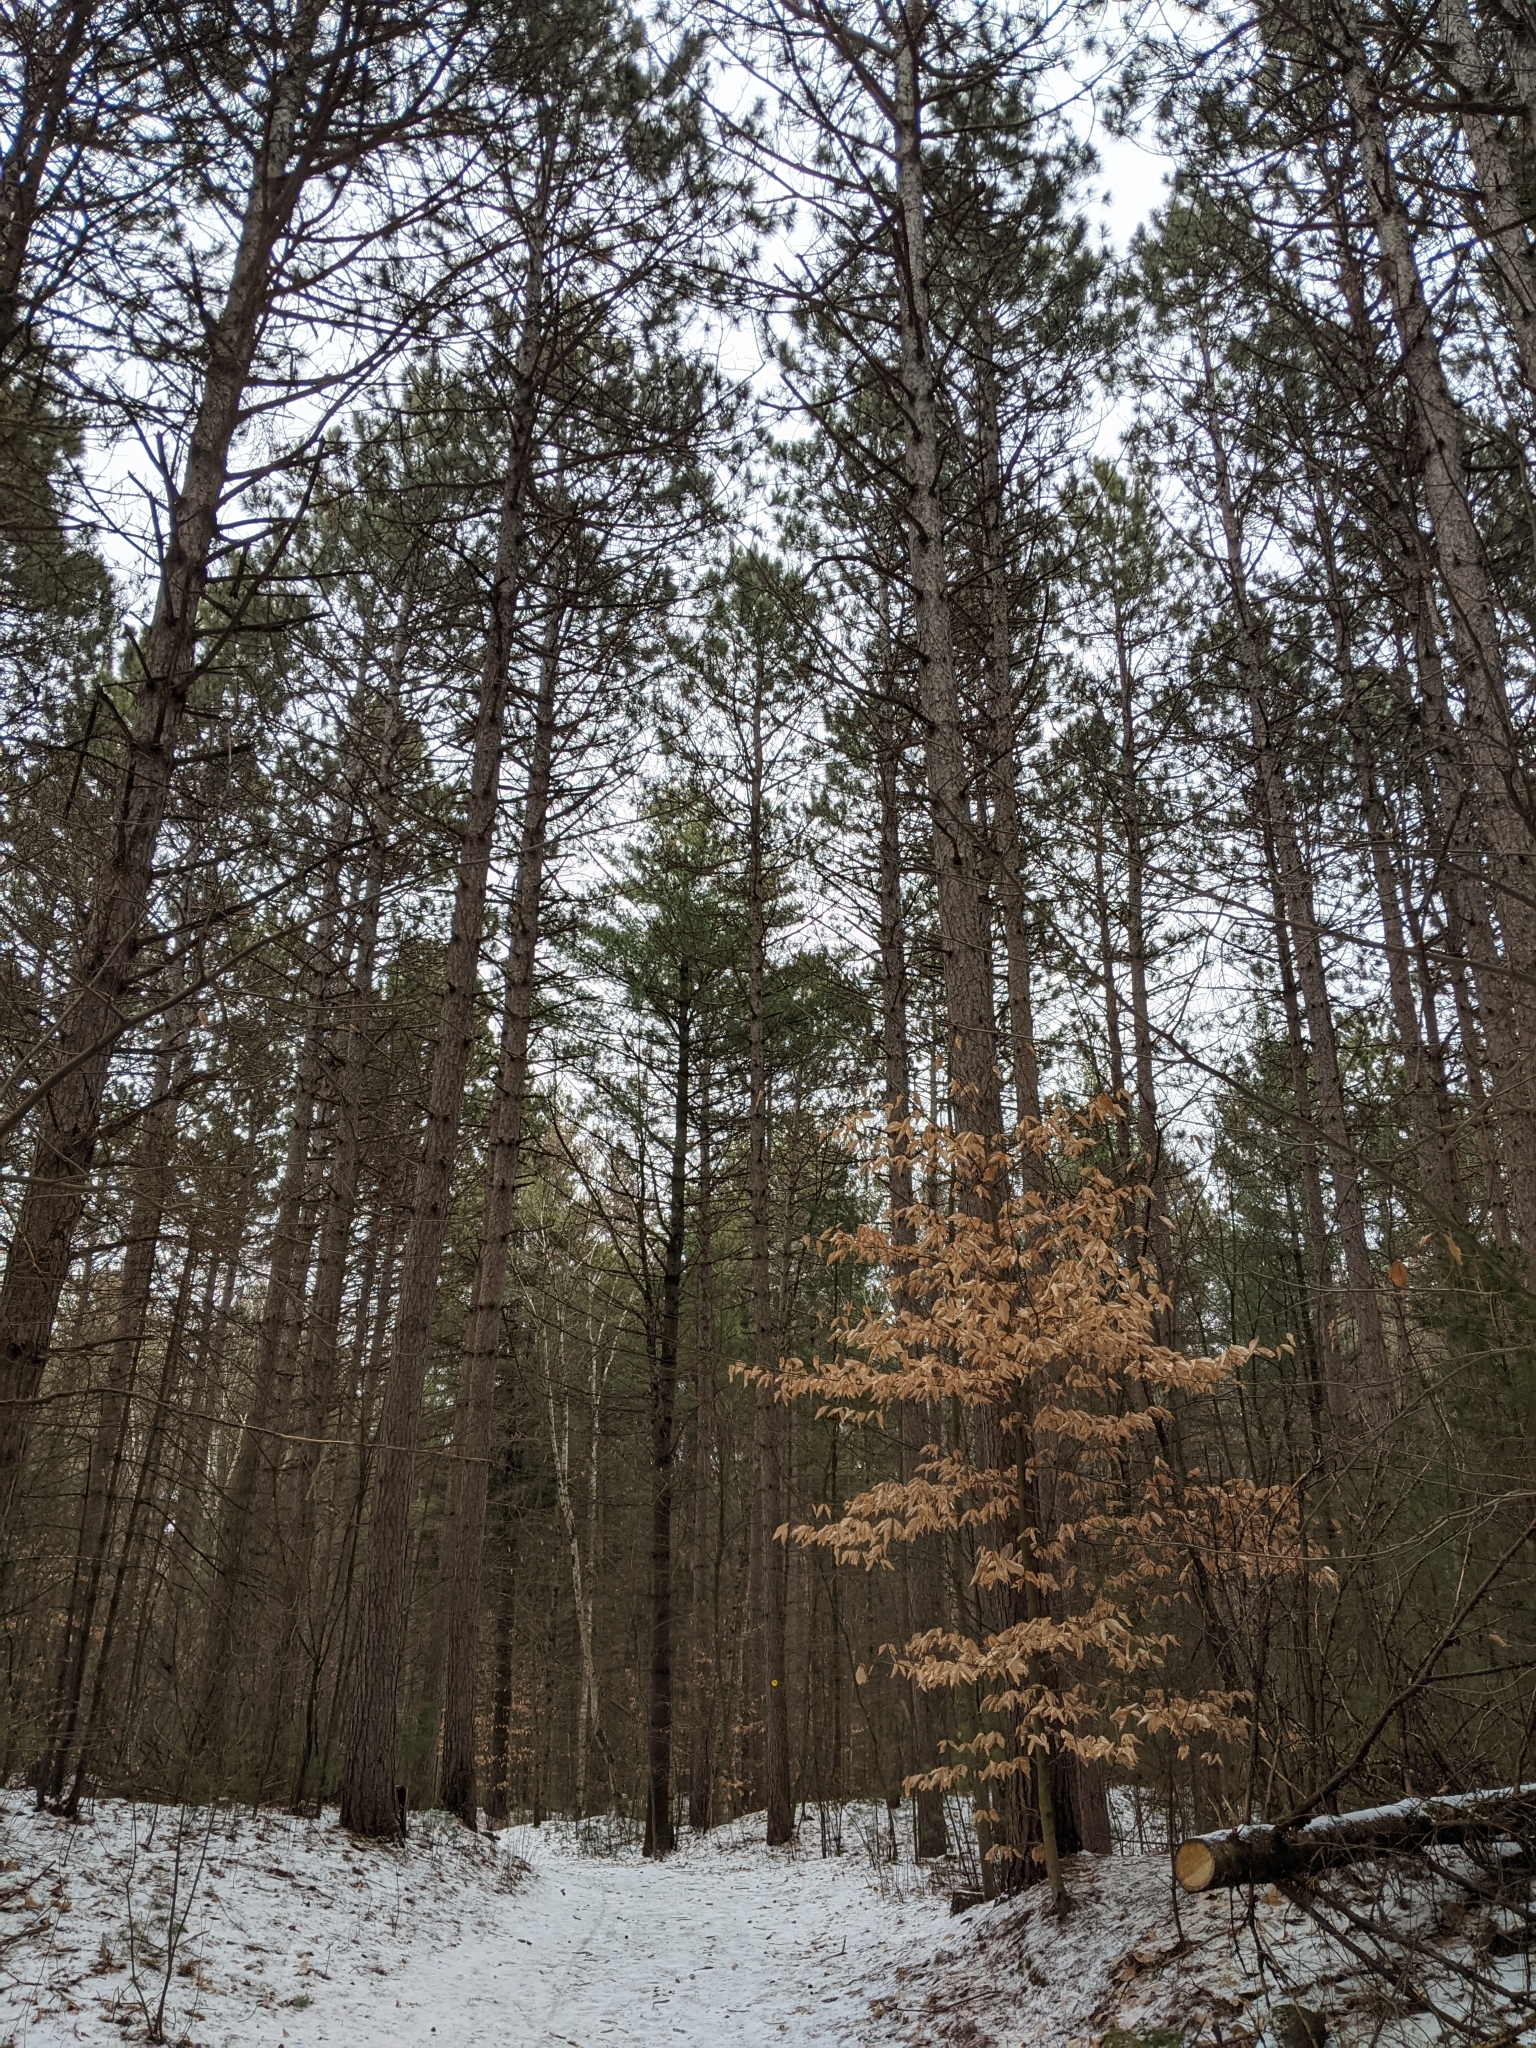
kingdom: Plantae
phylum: Tracheophyta
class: Magnoliopsida
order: Fagales
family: Fagaceae
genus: Fagus
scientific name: Fagus grandifolia
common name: American beech
